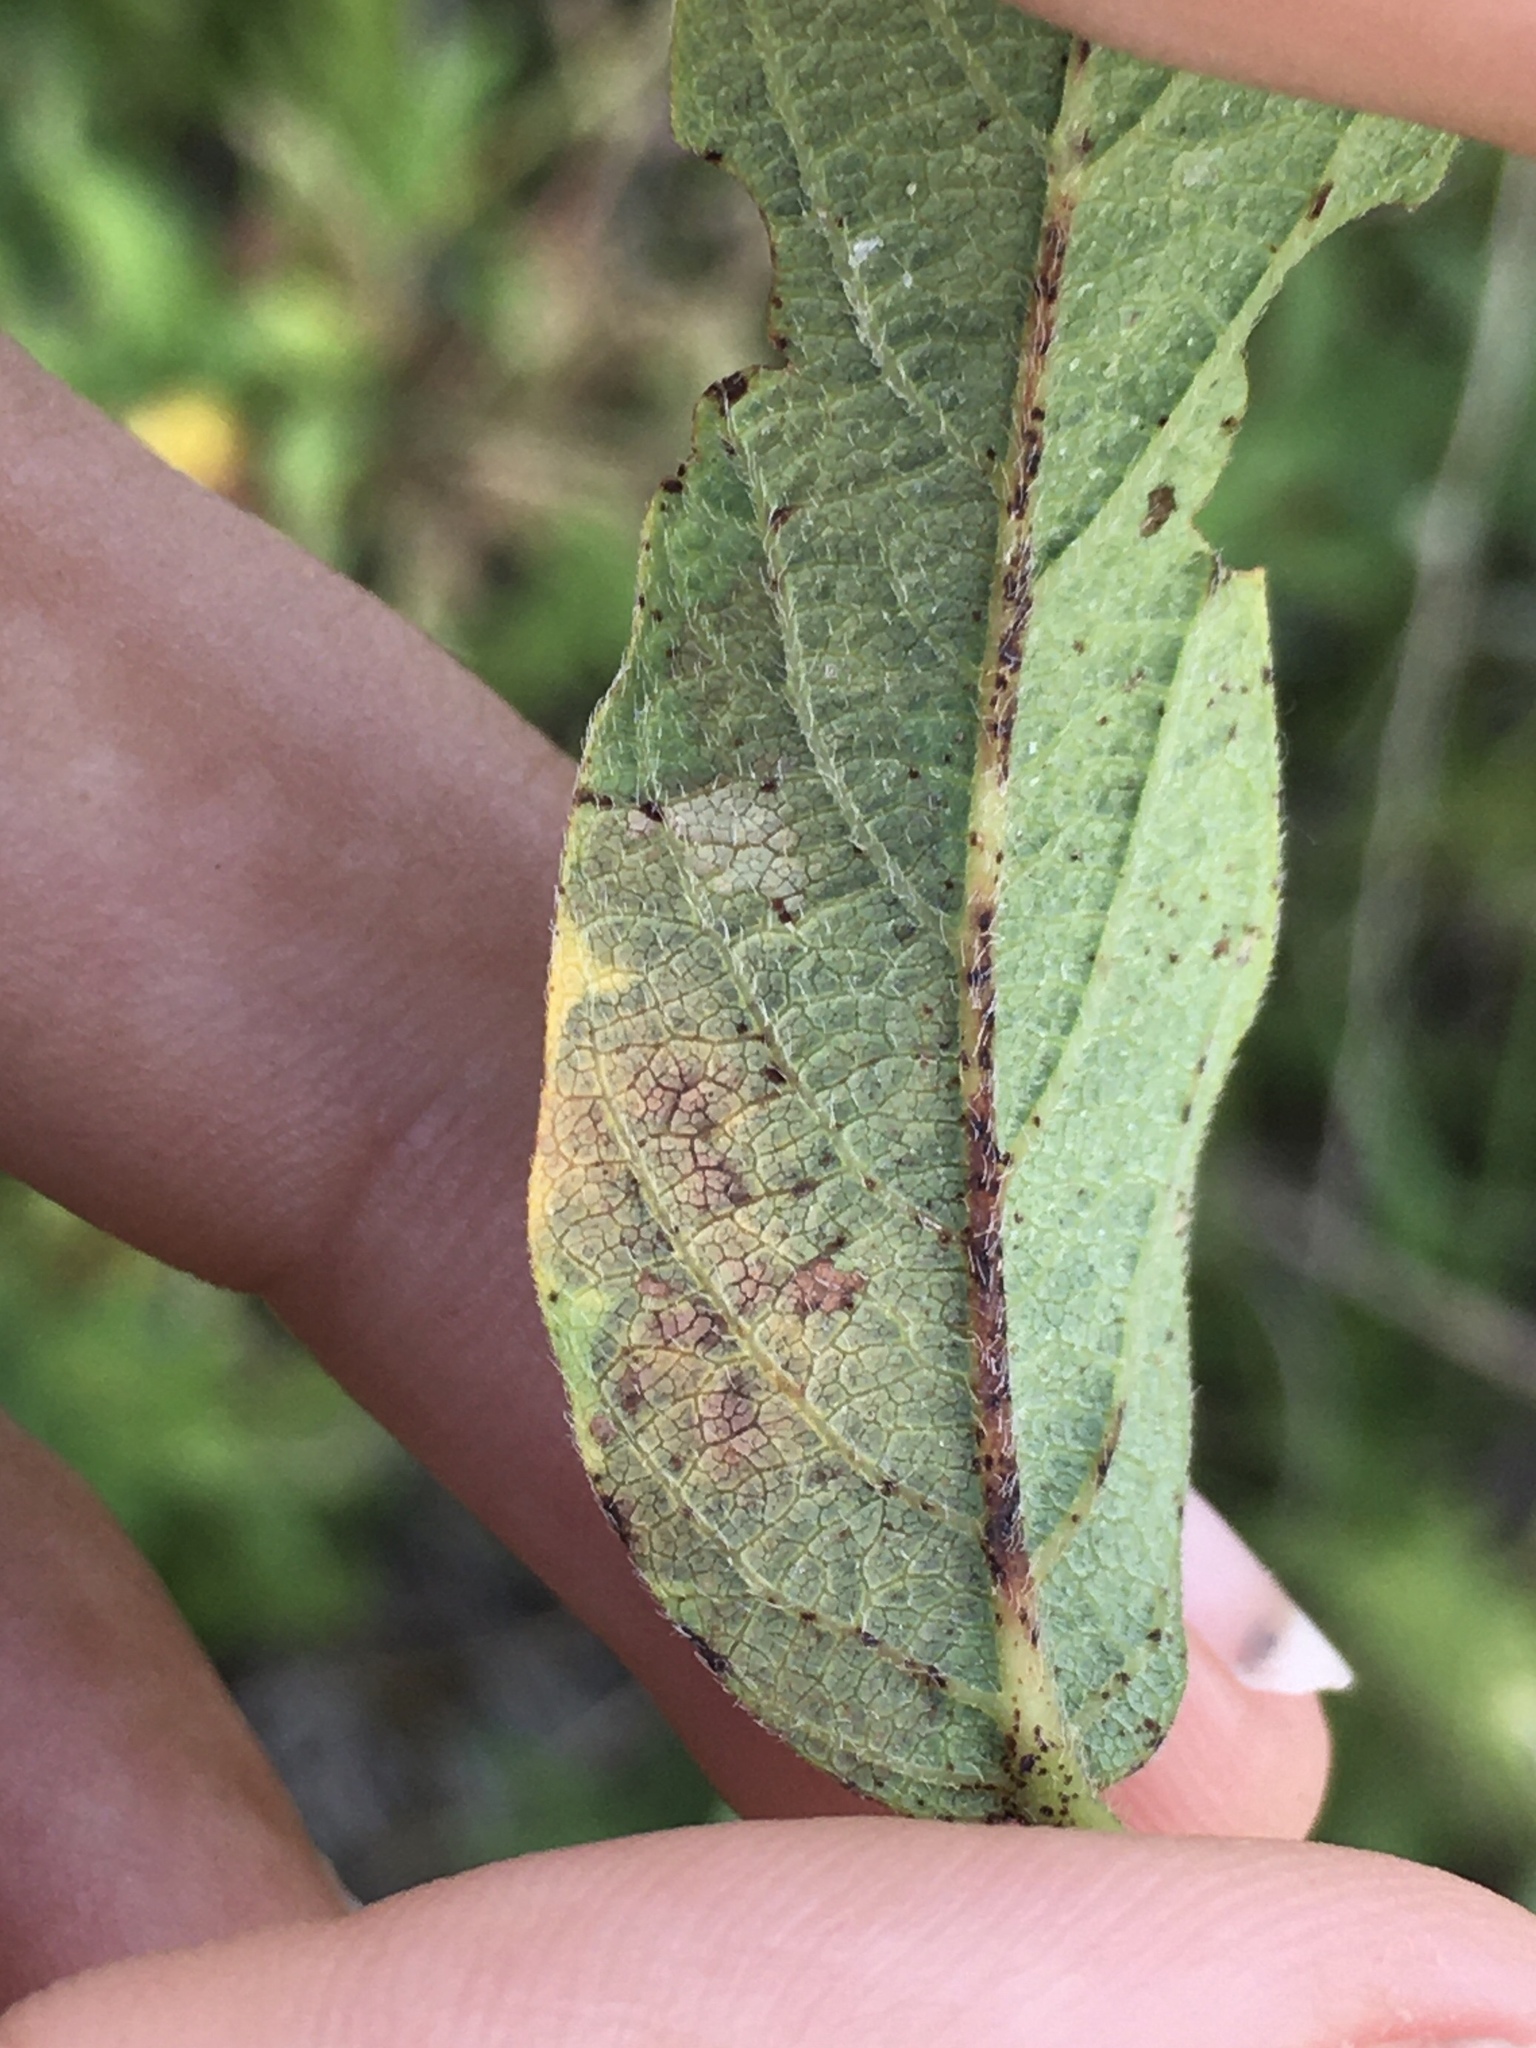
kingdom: Animalia
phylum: Arthropoda
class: Insecta
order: Coleoptera
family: Buprestidae
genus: Pachyschelus
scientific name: Pachyschelus laevigatus
